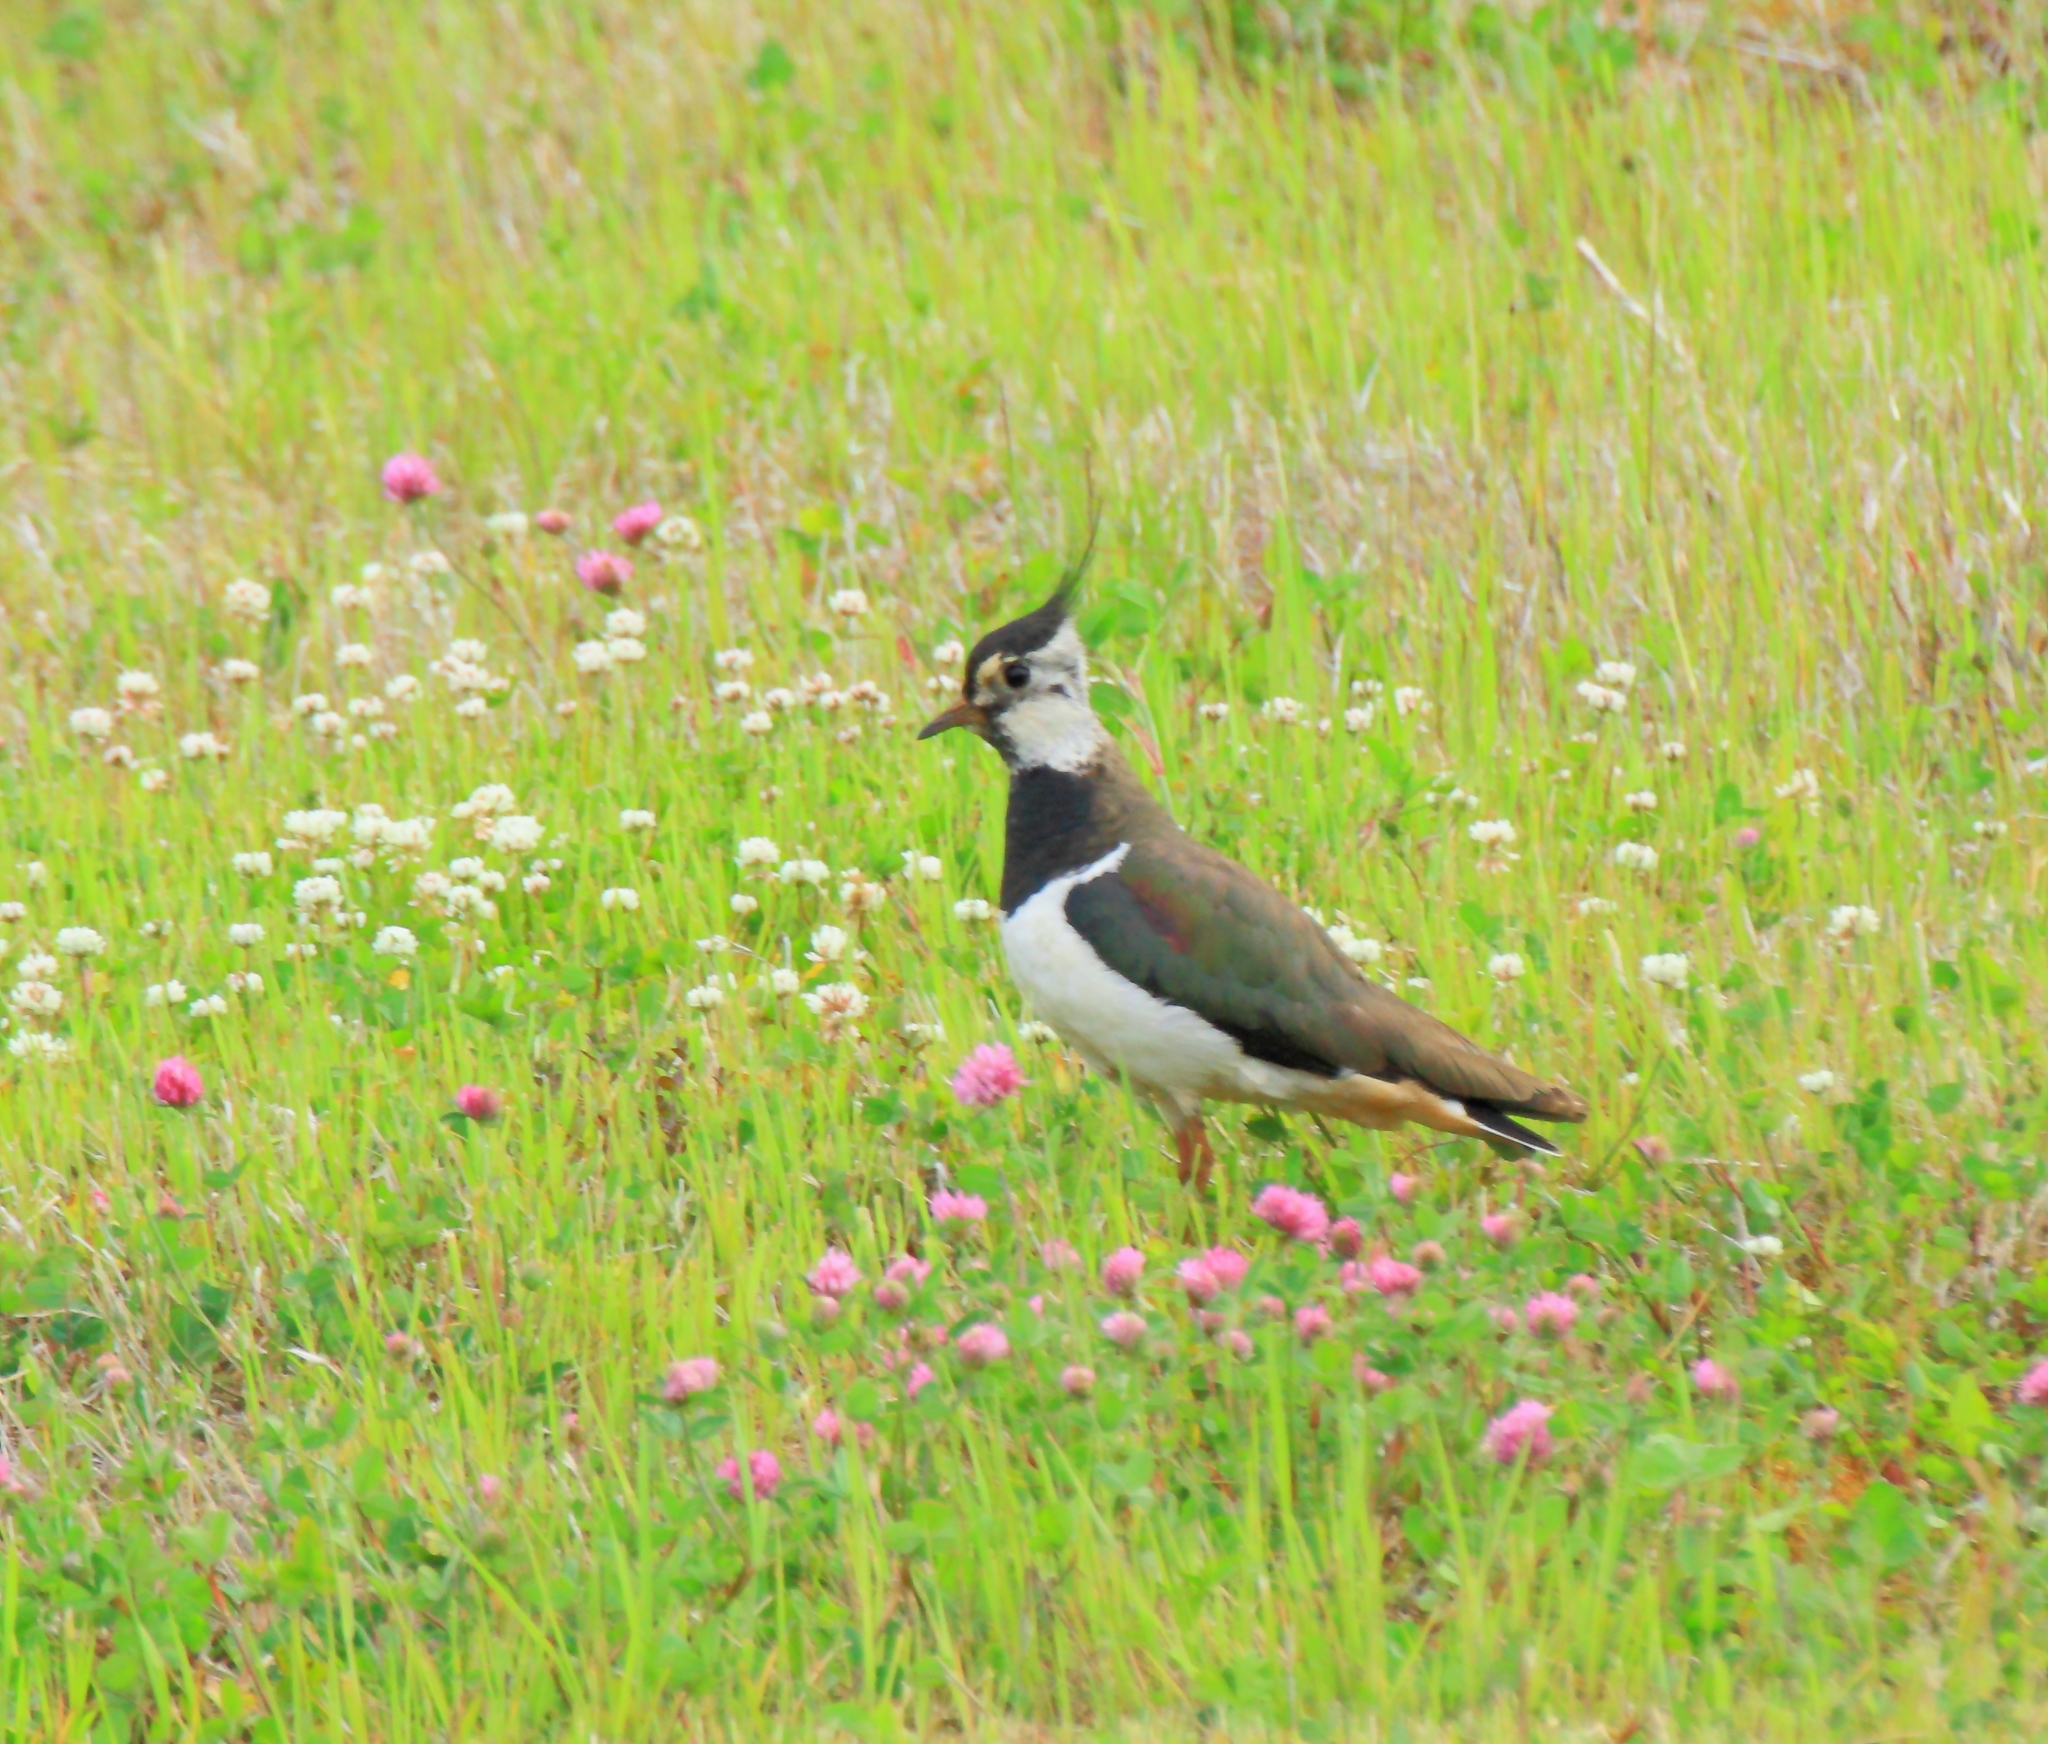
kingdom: Animalia
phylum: Chordata
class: Aves
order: Charadriiformes
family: Charadriidae
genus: Vanellus
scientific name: Vanellus vanellus
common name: Northern lapwing
